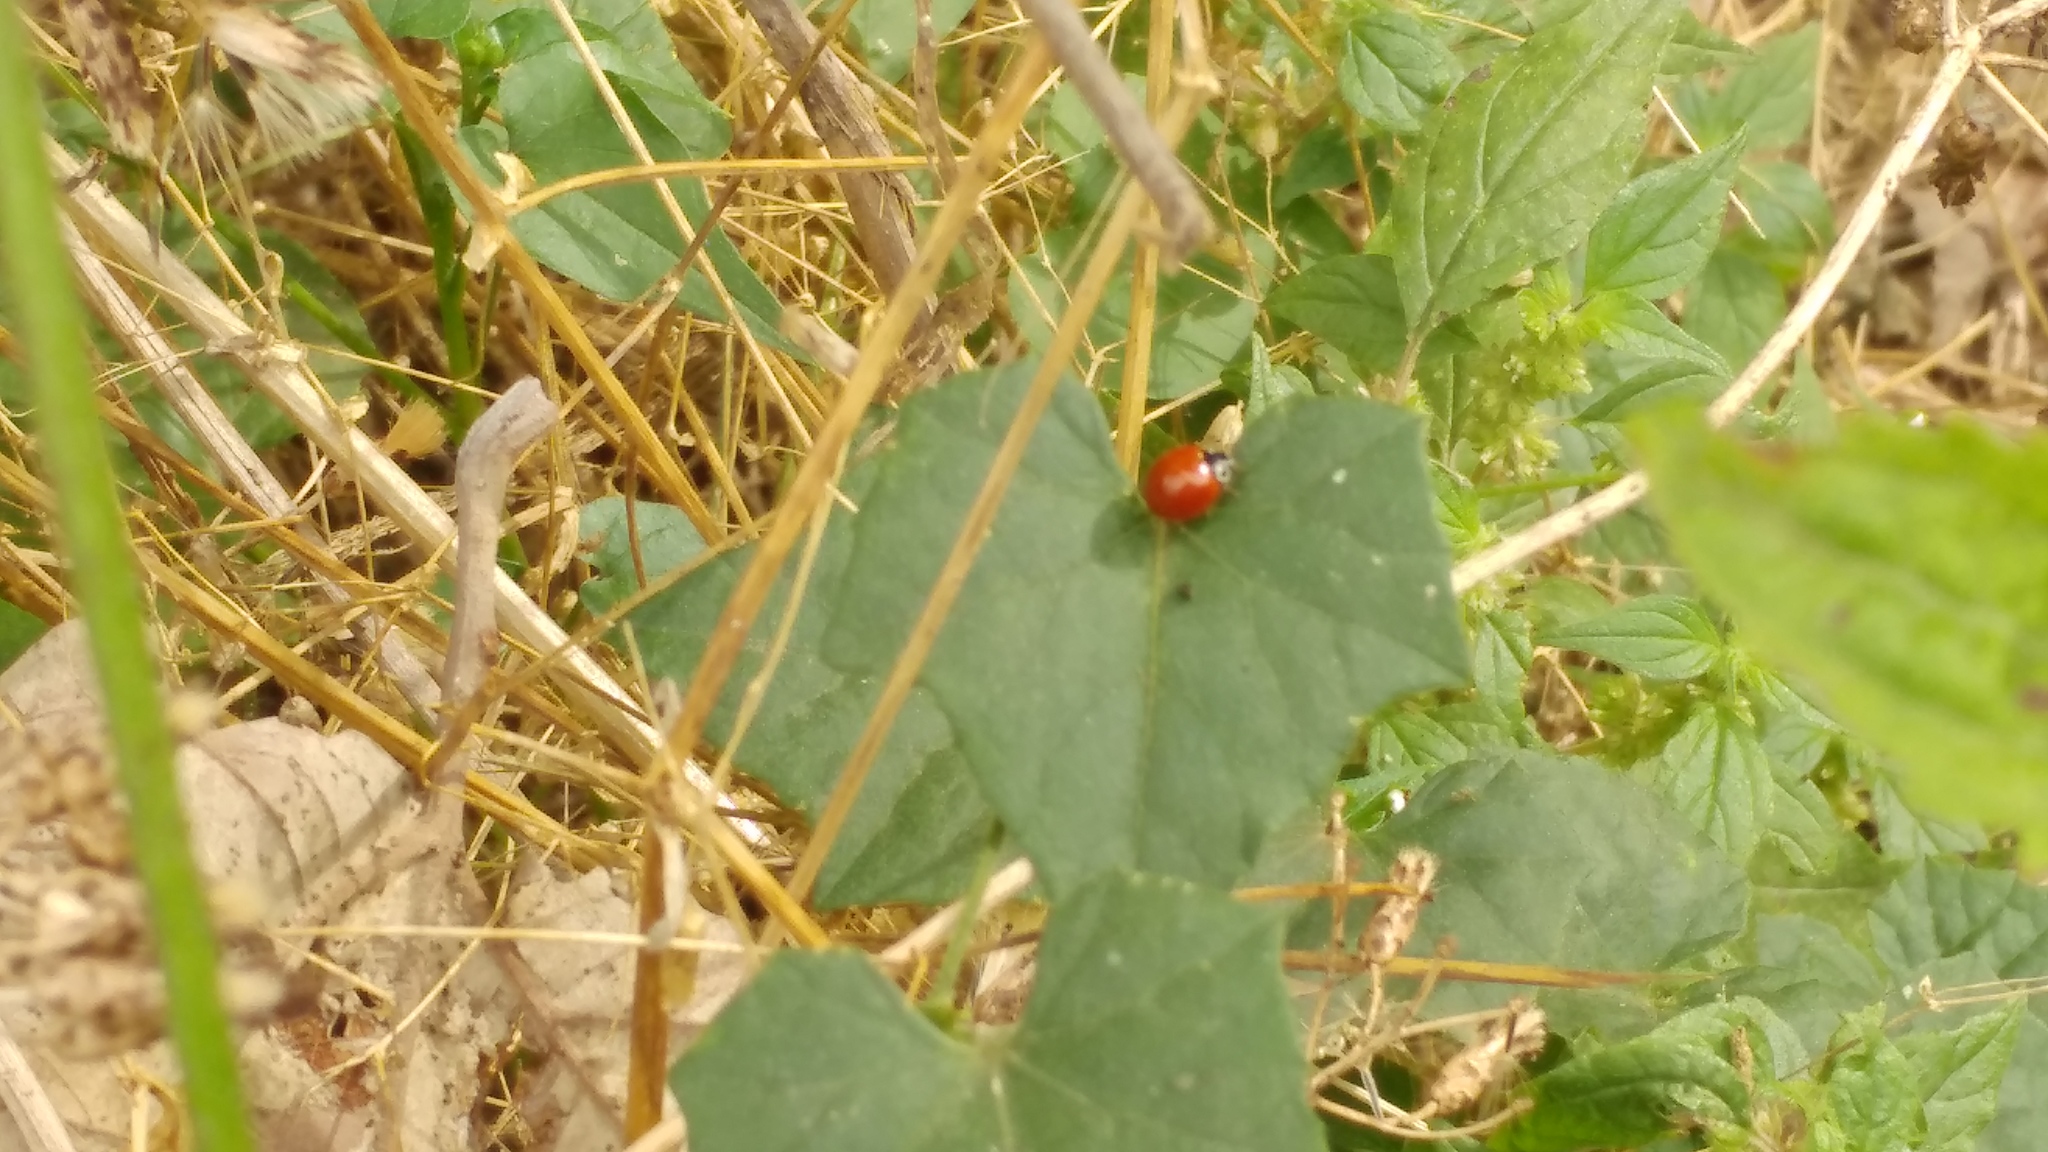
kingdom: Animalia
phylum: Arthropoda
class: Insecta
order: Coleoptera
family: Coccinellidae
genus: Cycloneda
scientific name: Cycloneda sanguinea
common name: Ladybird beetle
